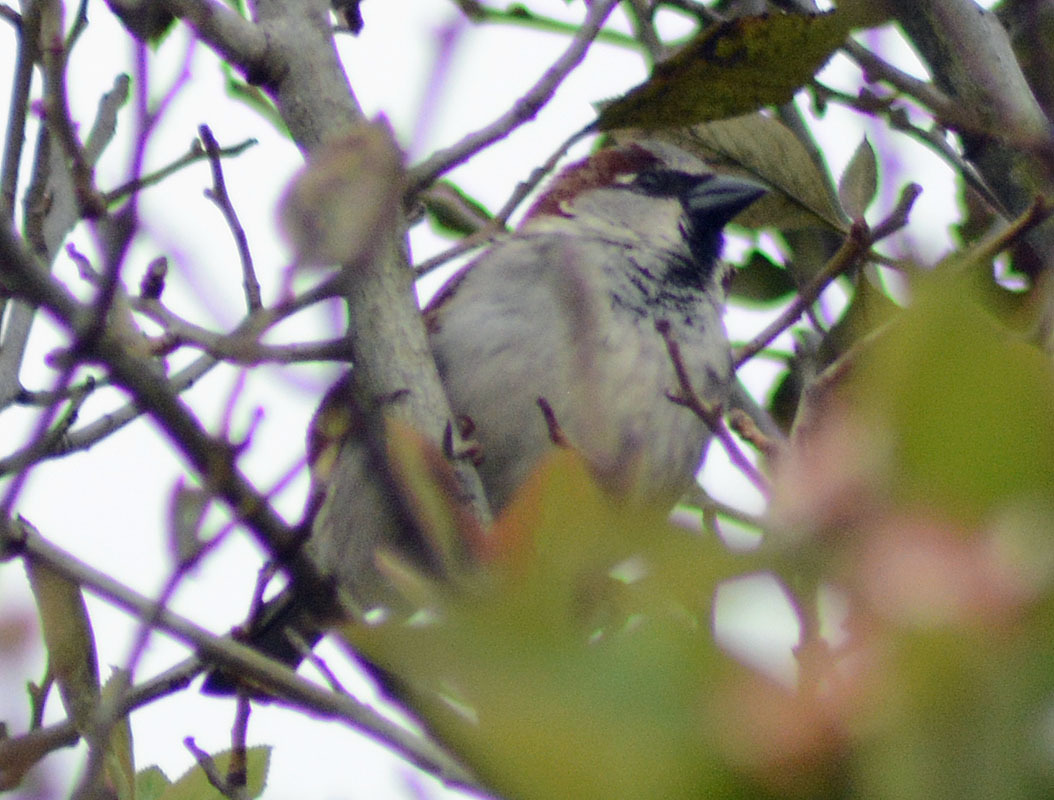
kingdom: Animalia
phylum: Chordata
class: Aves
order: Passeriformes
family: Passeridae
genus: Passer
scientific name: Passer domesticus
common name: House sparrow
